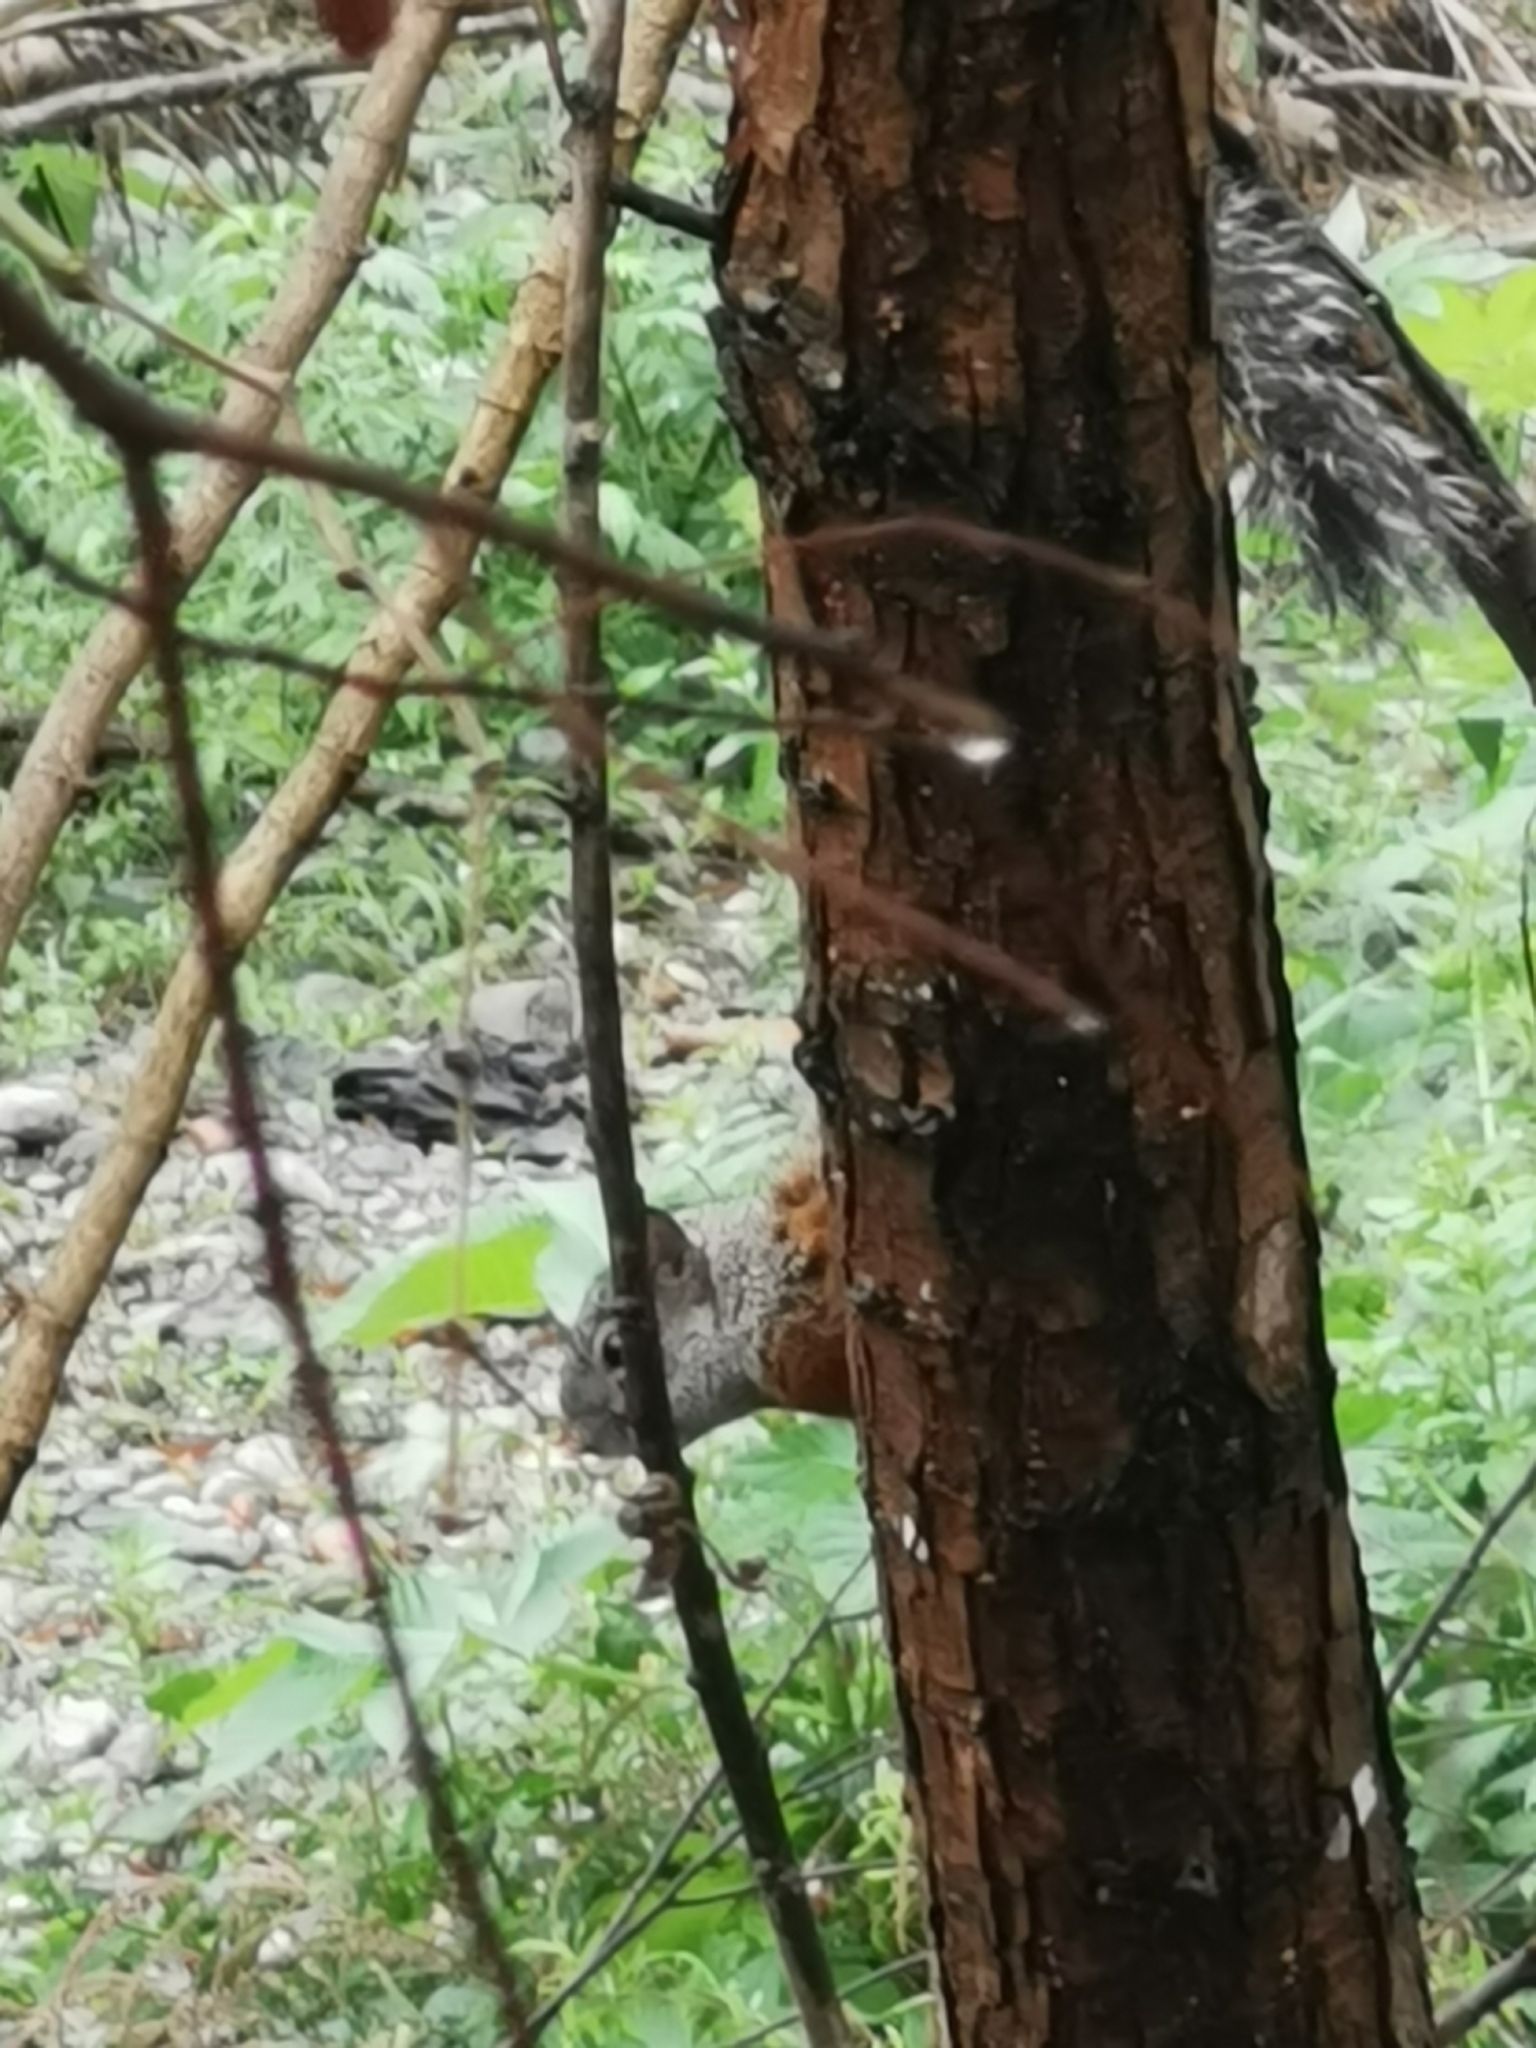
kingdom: Animalia
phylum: Chordata
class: Mammalia
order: Rodentia
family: Sciuridae
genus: Sciurus
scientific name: Sciurus aureogaster
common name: Red-bellied squirrel
